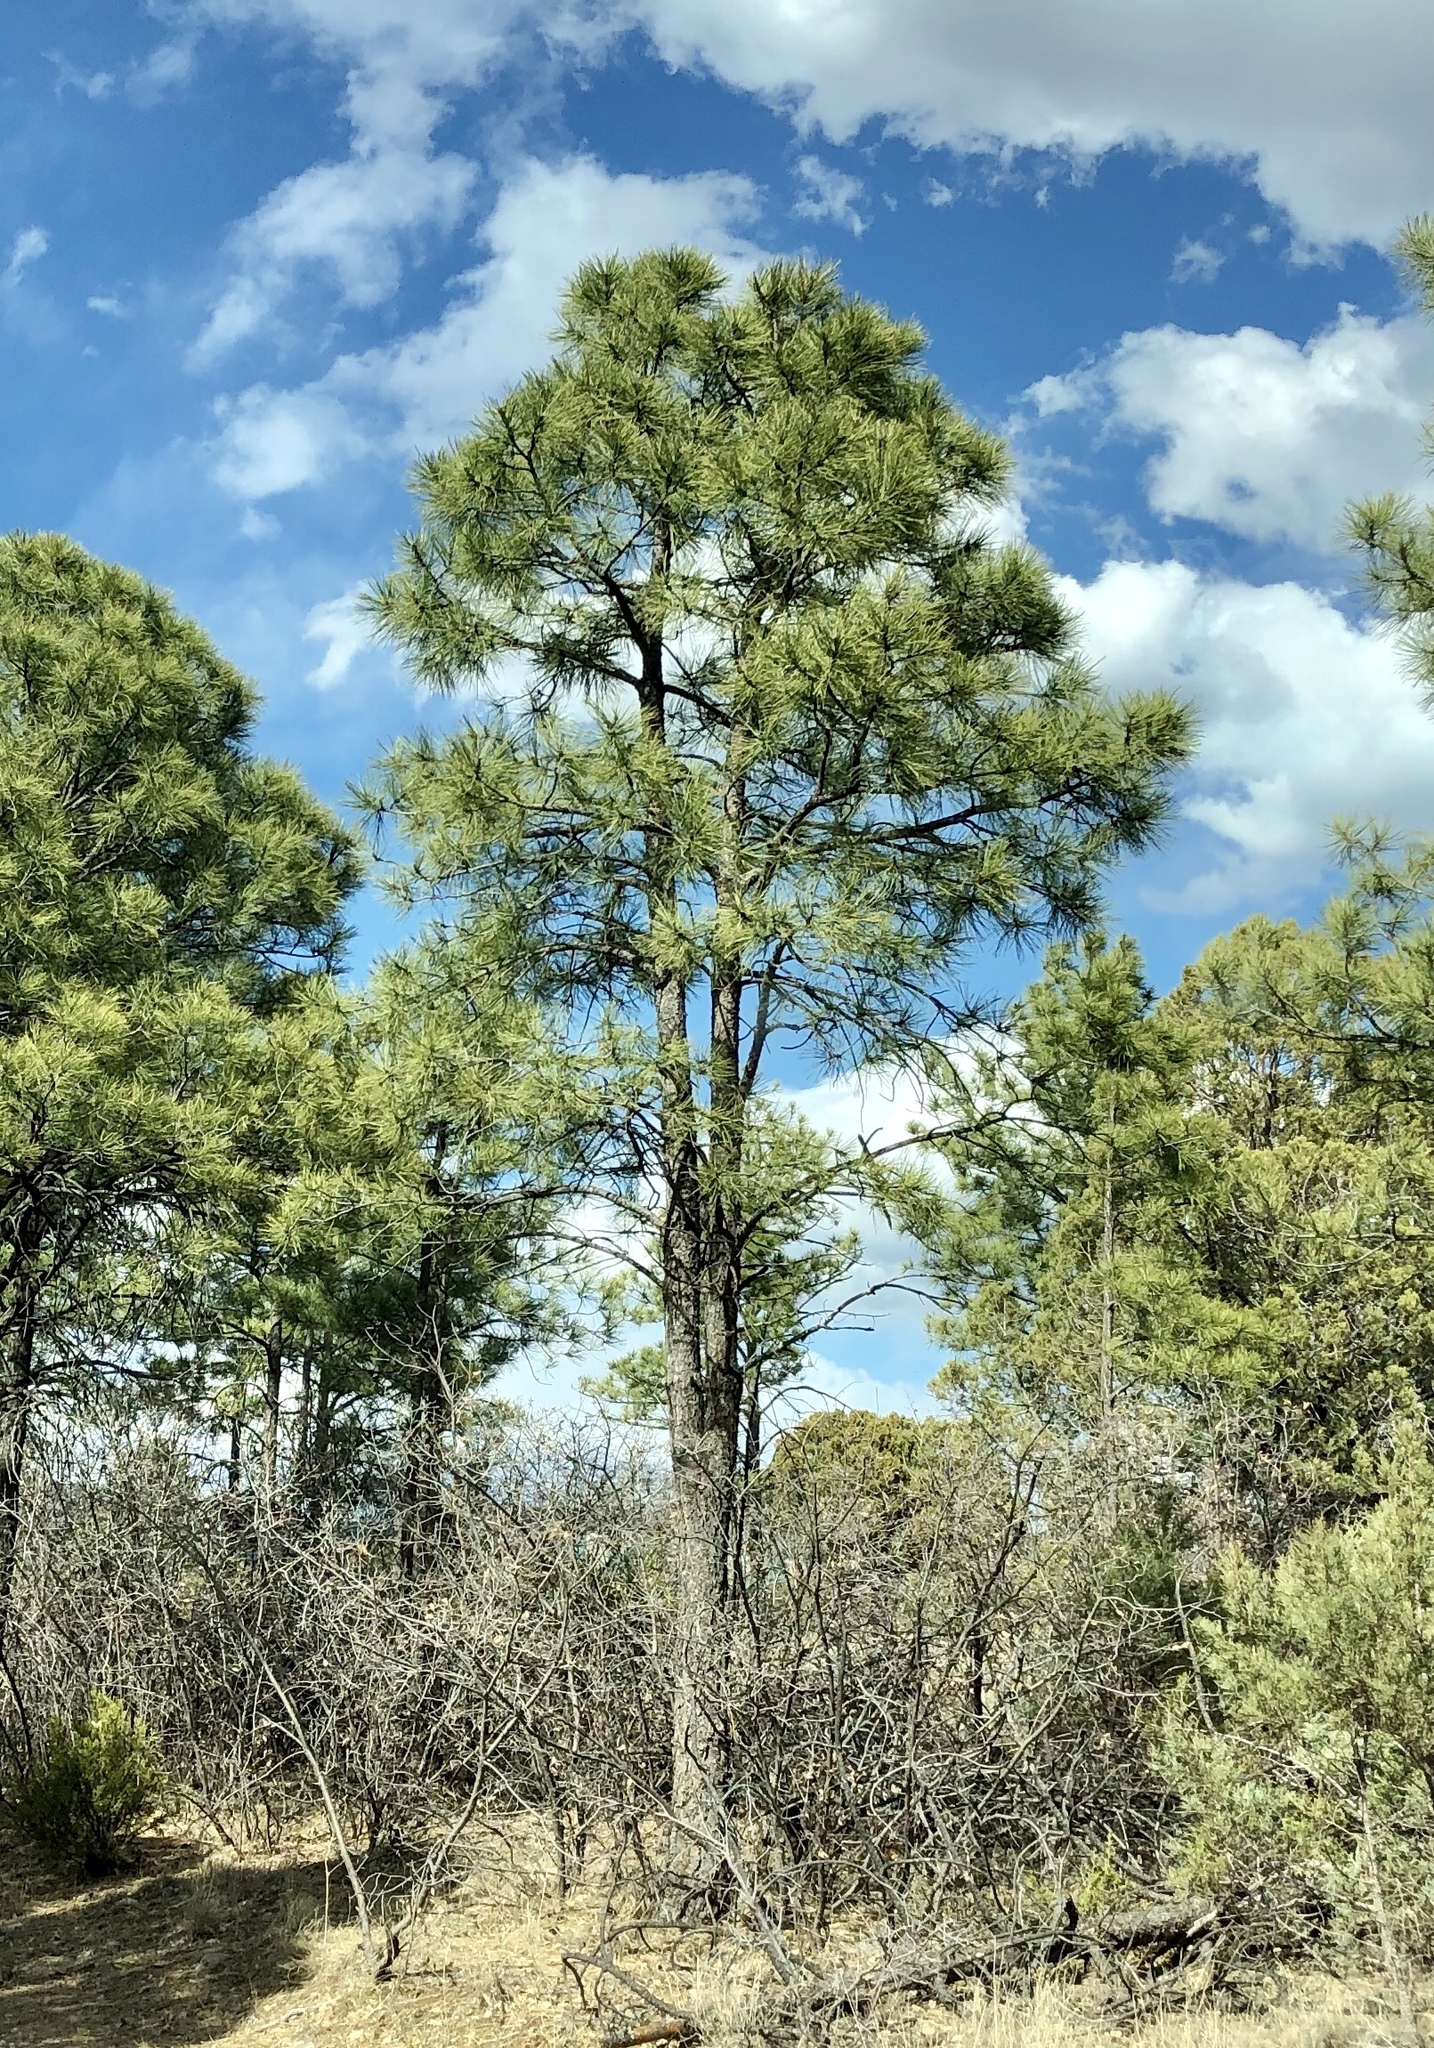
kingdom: Plantae
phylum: Tracheophyta
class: Pinopsida
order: Pinales
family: Pinaceae
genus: Pinus
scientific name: Pinus ponderosa
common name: Western yellow-pine
